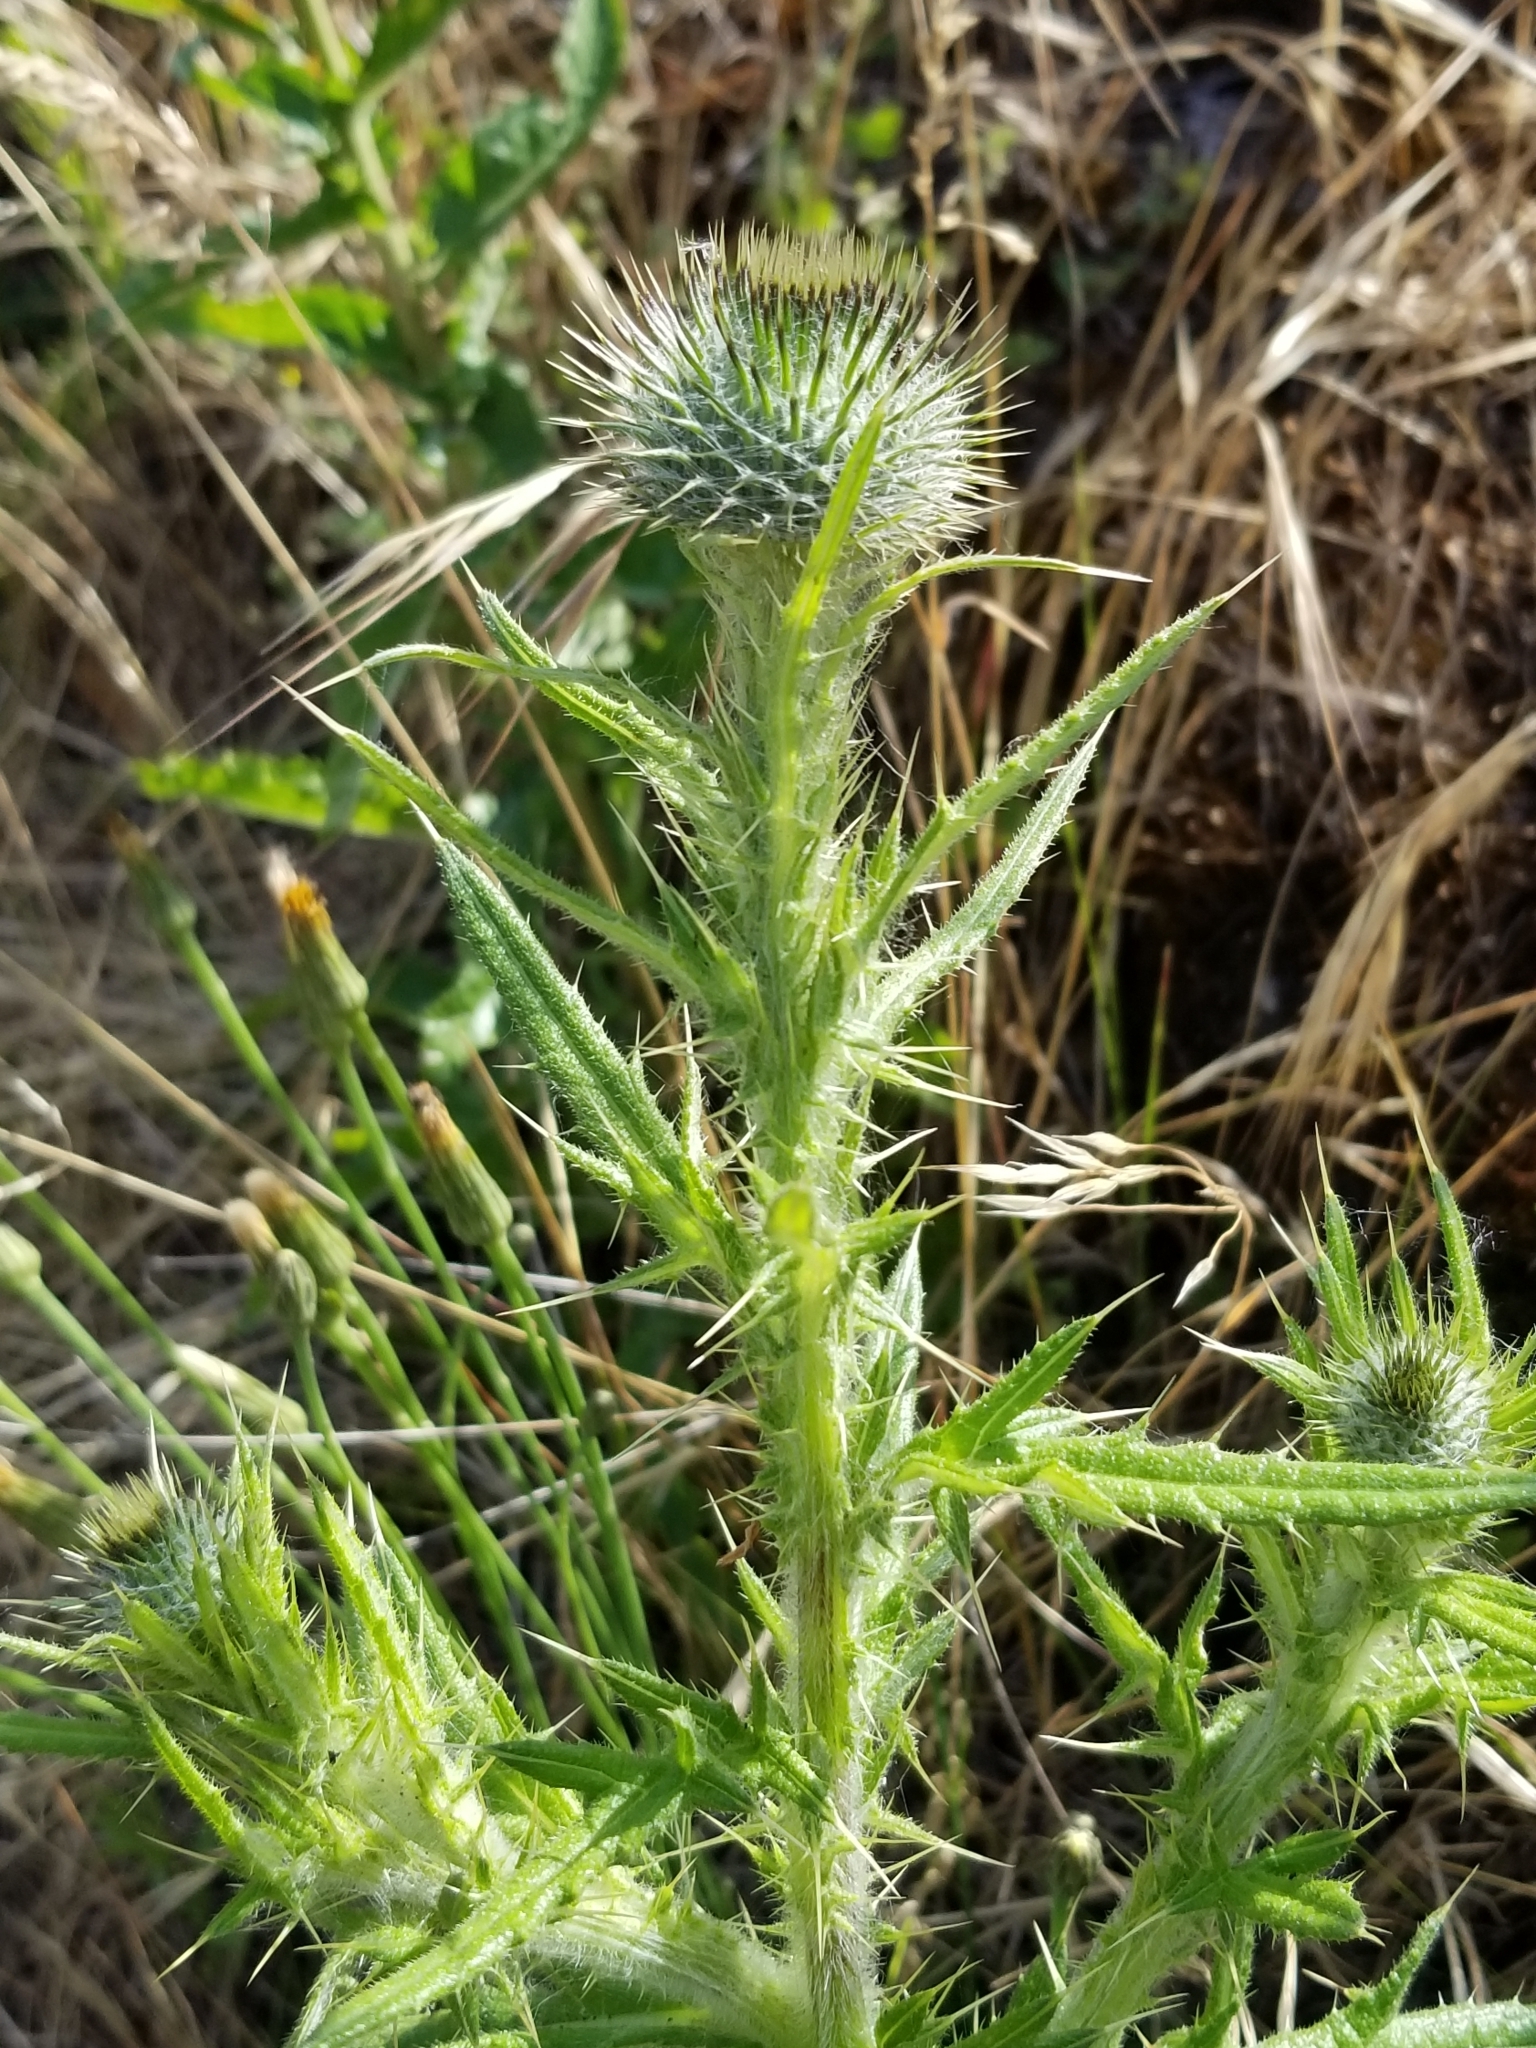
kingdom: Plantae
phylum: Tracheophyta
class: Magnoliopsida
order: Asterales
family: Asteraceae
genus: Cirsium
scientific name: Cirsium vulgare
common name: Bull thistle
